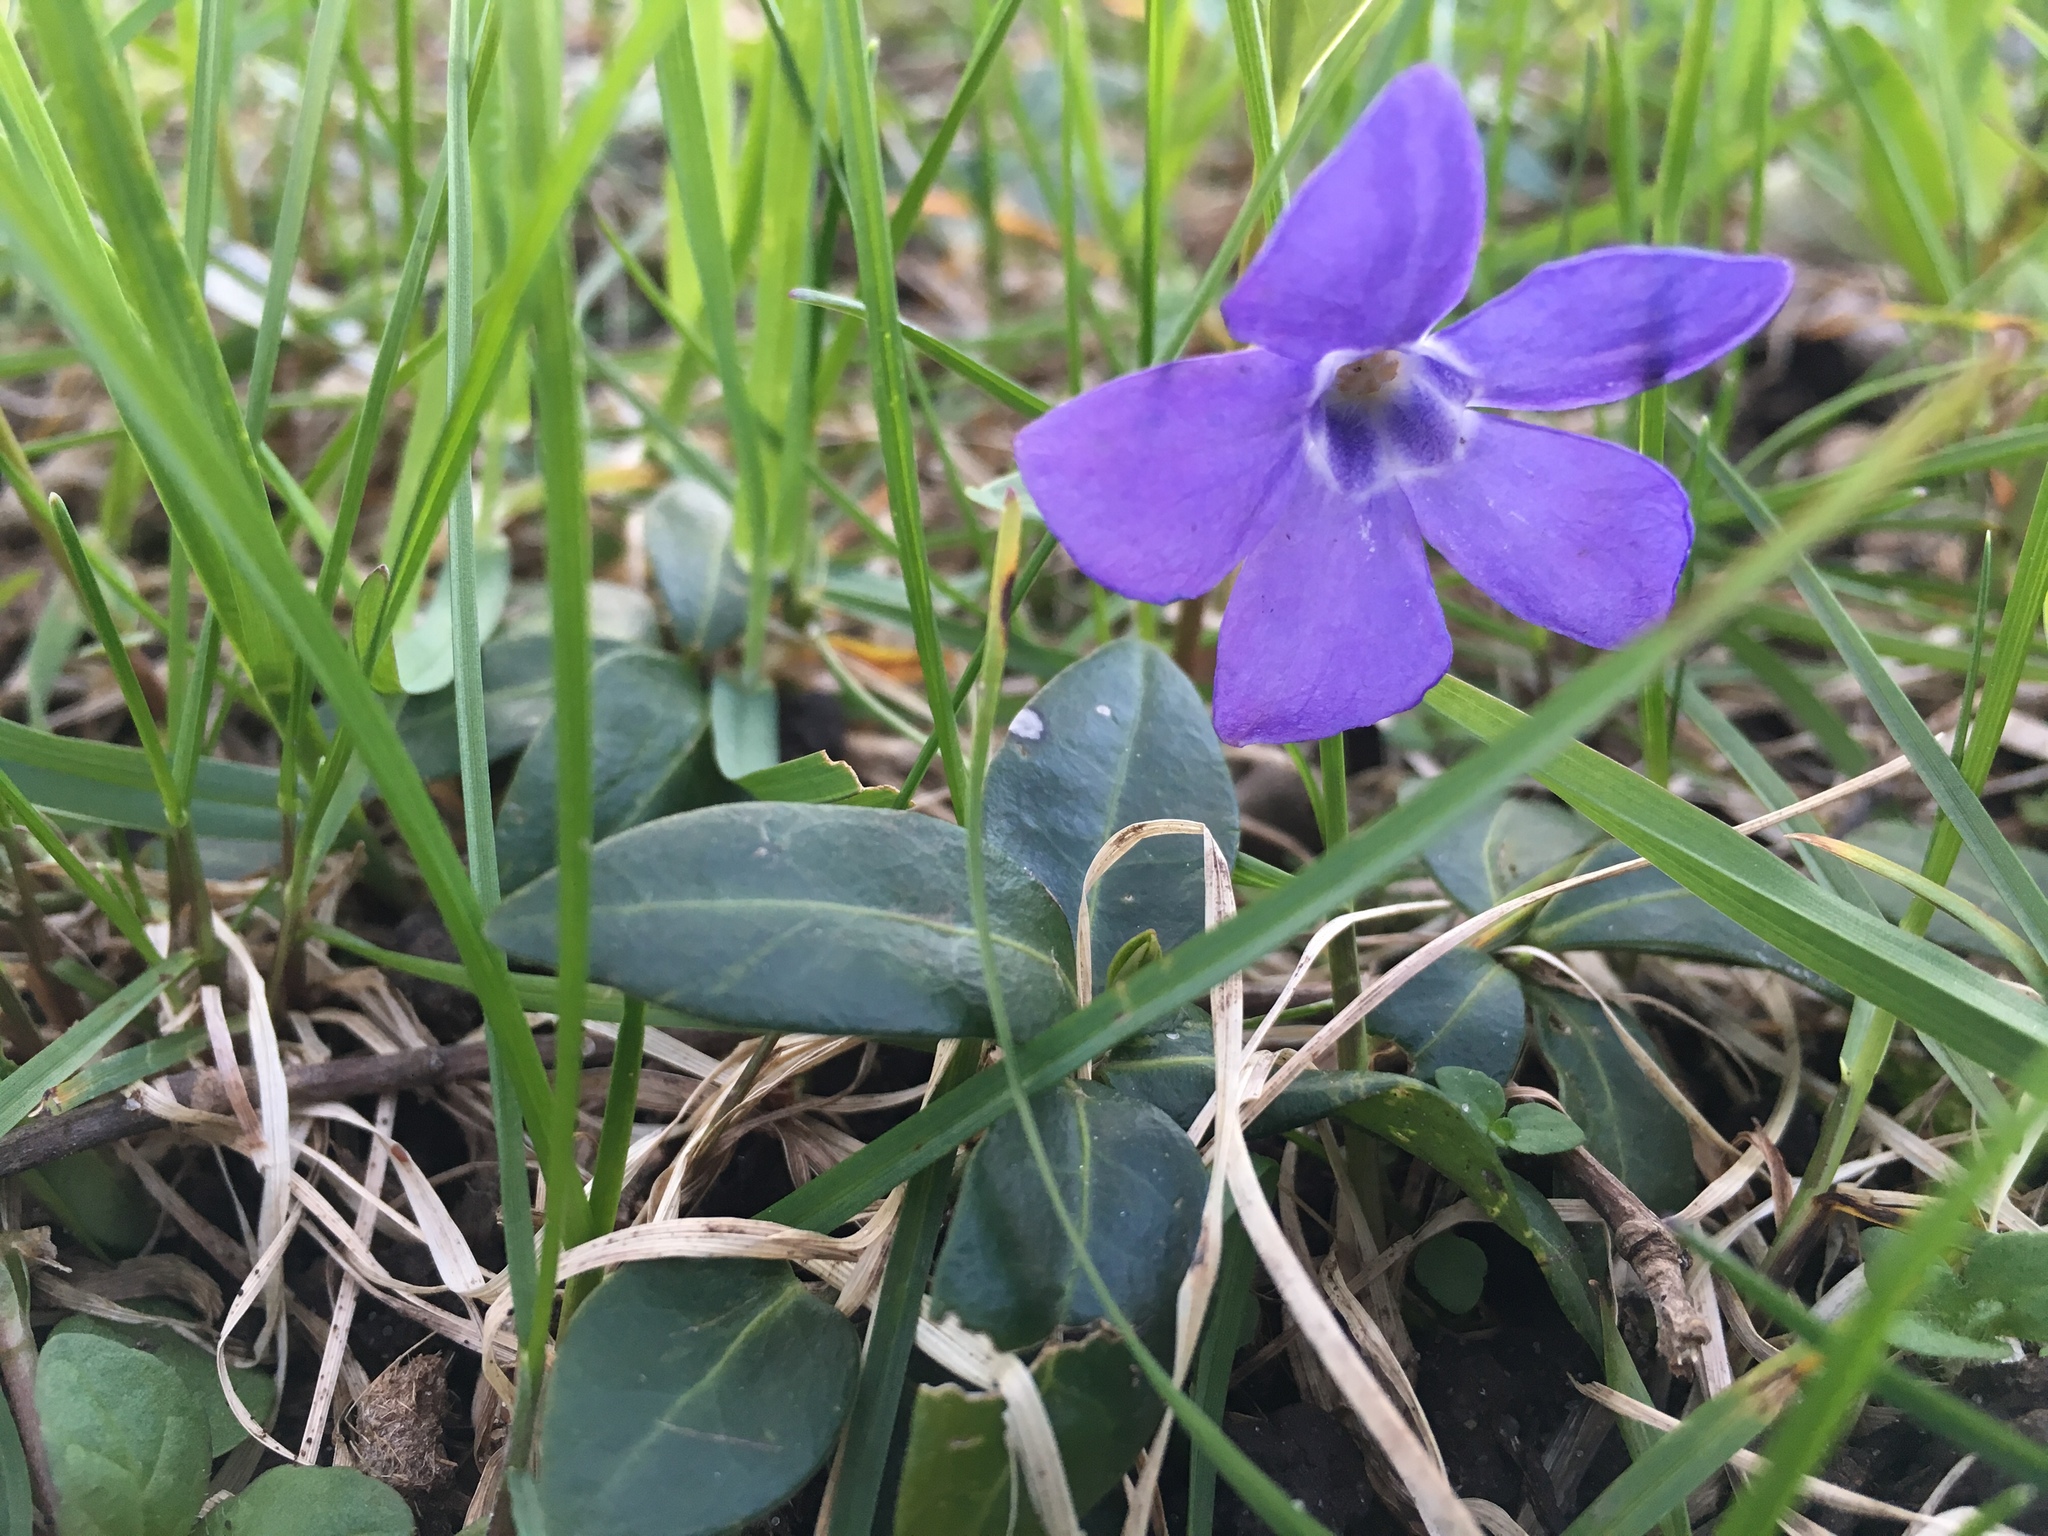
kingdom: Plantae
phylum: Tracheophyta
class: Magnoliopsida
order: Gentianales
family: Apocynaceae
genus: Vinca
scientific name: Vinca minor
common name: Lesser periwinkle
